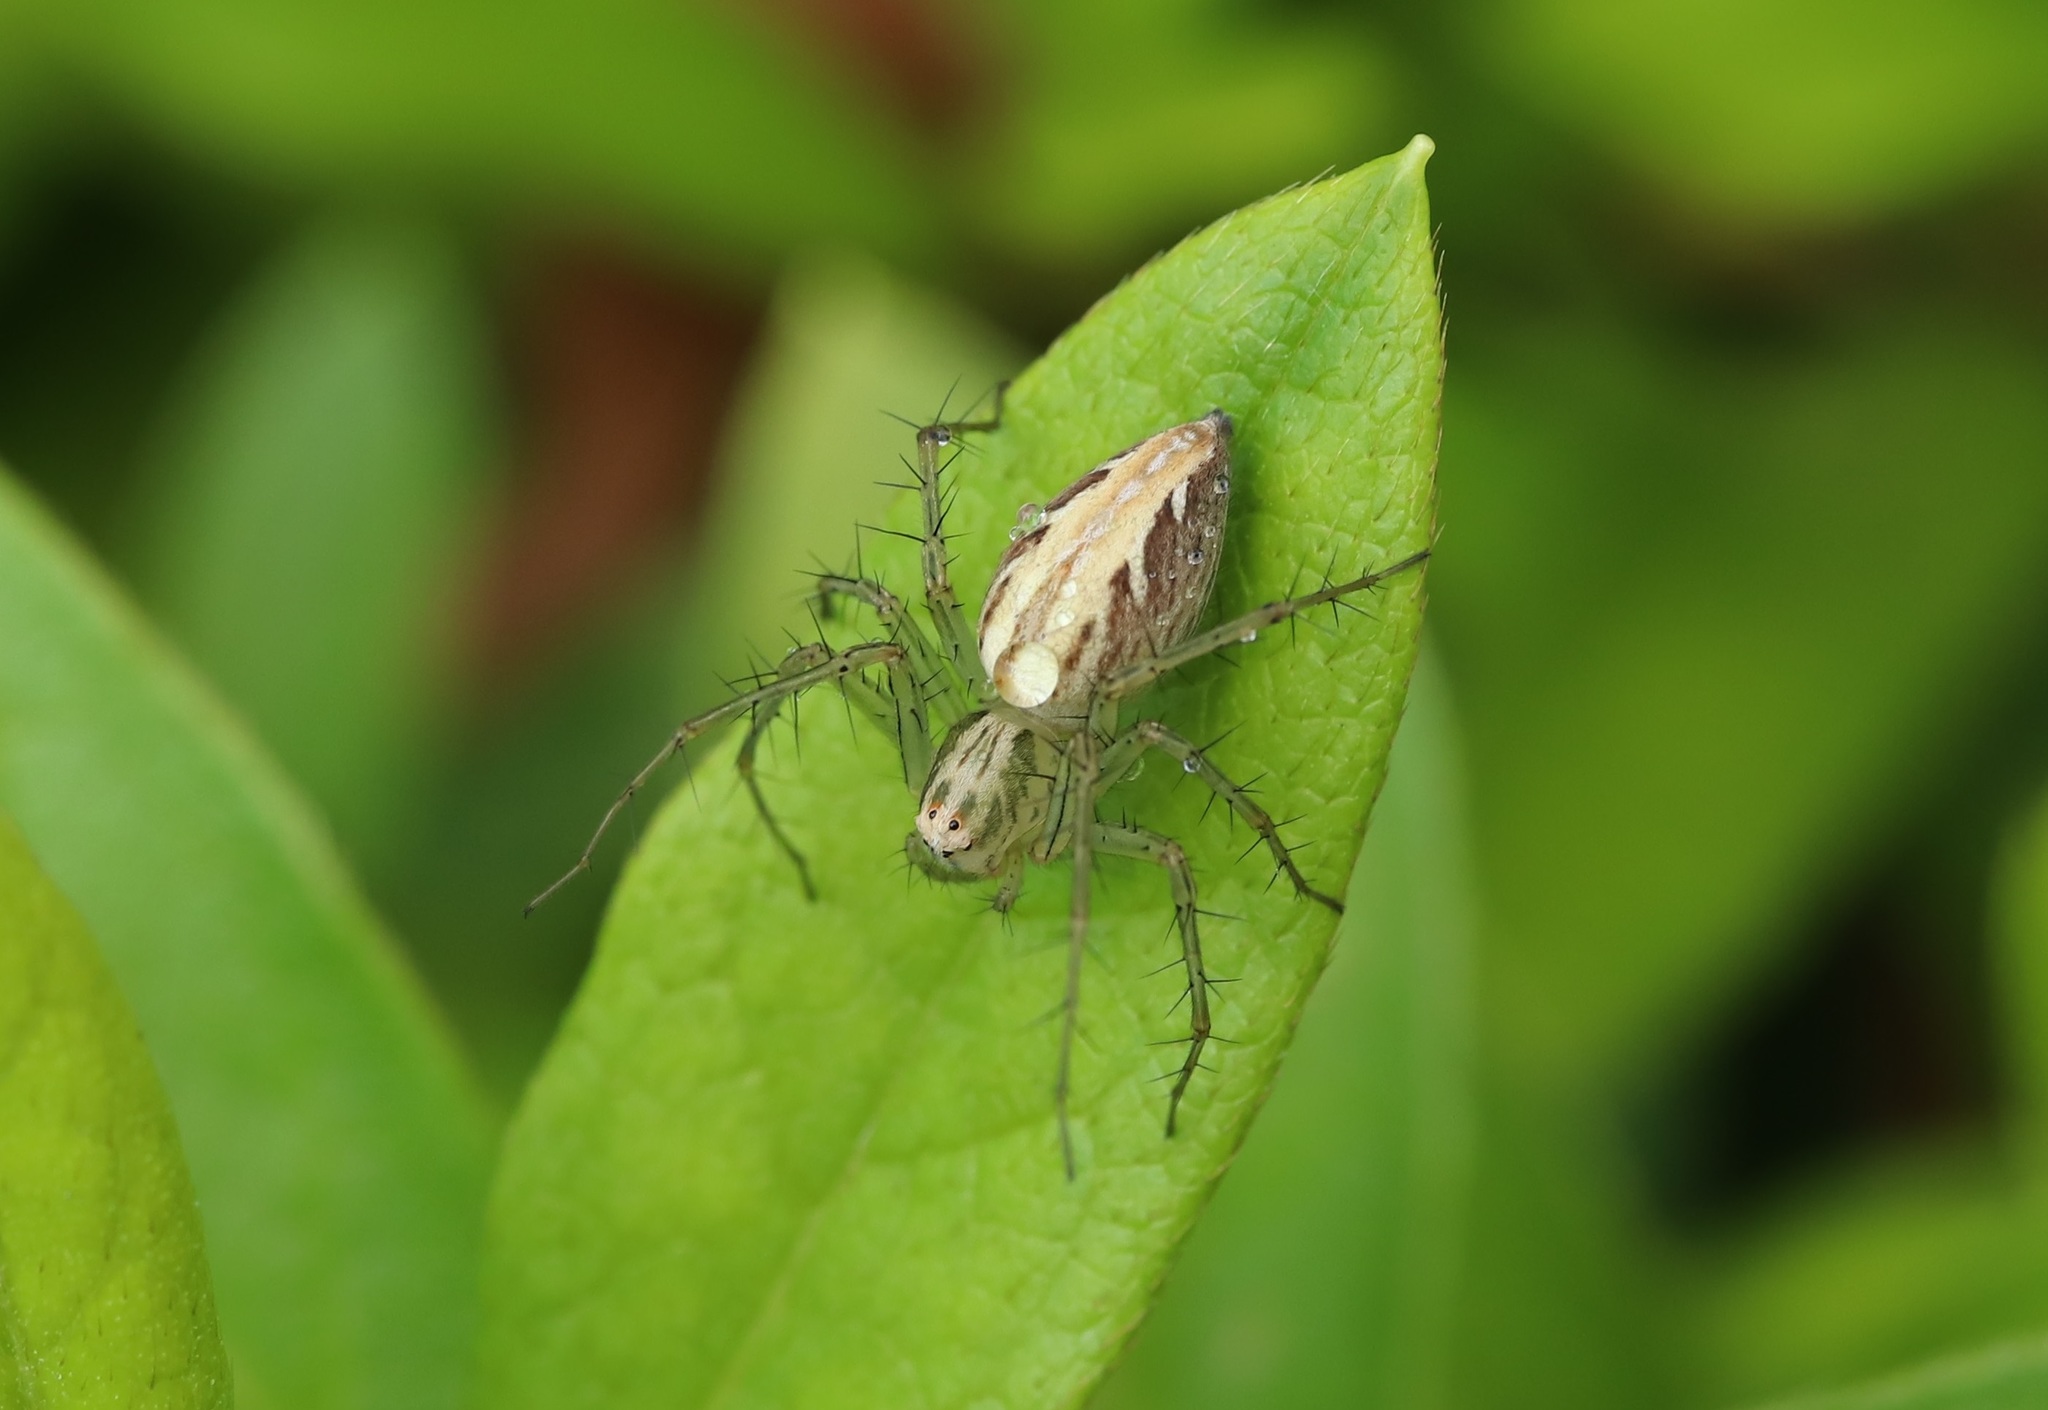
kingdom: Animalia
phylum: Arthropoda
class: Arachnida
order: Araneae
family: Oxyopidae
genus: Oxyopes
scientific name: Oxyopes sertatus
